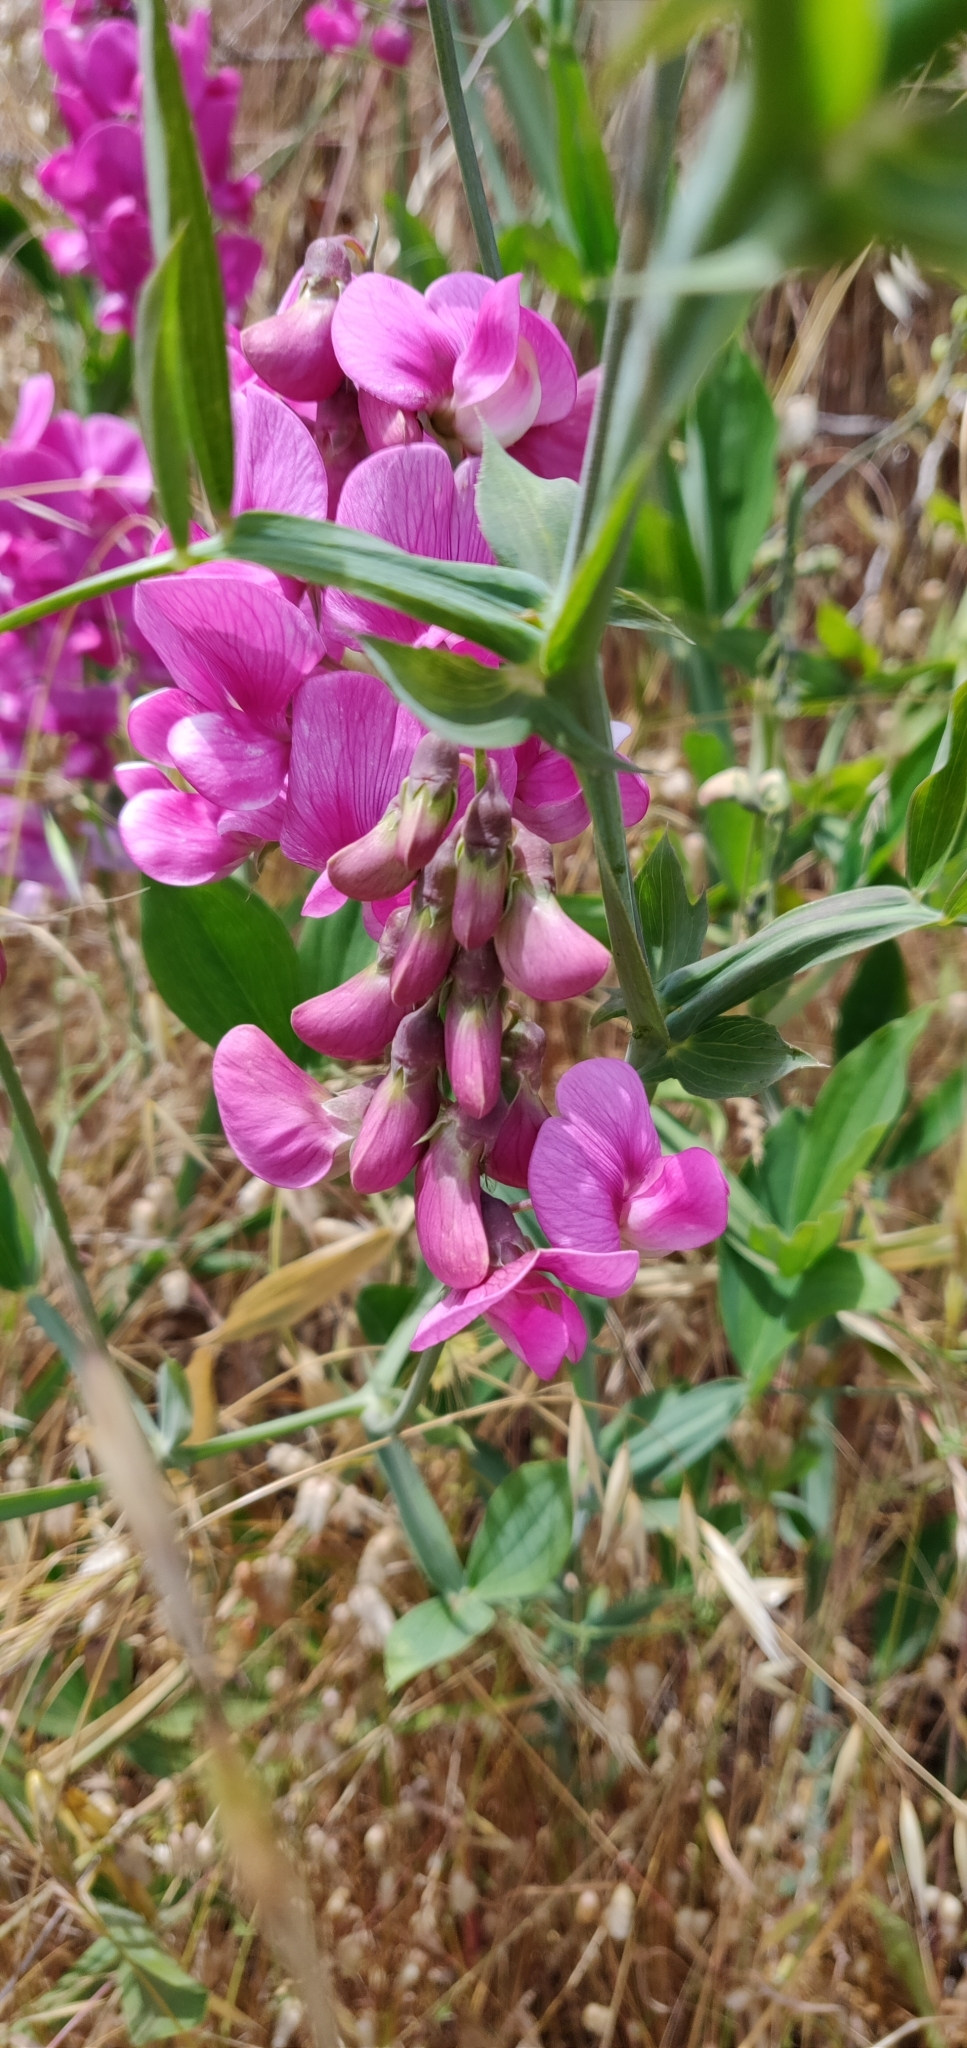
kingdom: Plantae
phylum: Tracheophyta
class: Magnoliopsida
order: Fabales
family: Fabaceae
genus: Lathyrus
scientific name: Lathyrus latifolius
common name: Perennial pea
